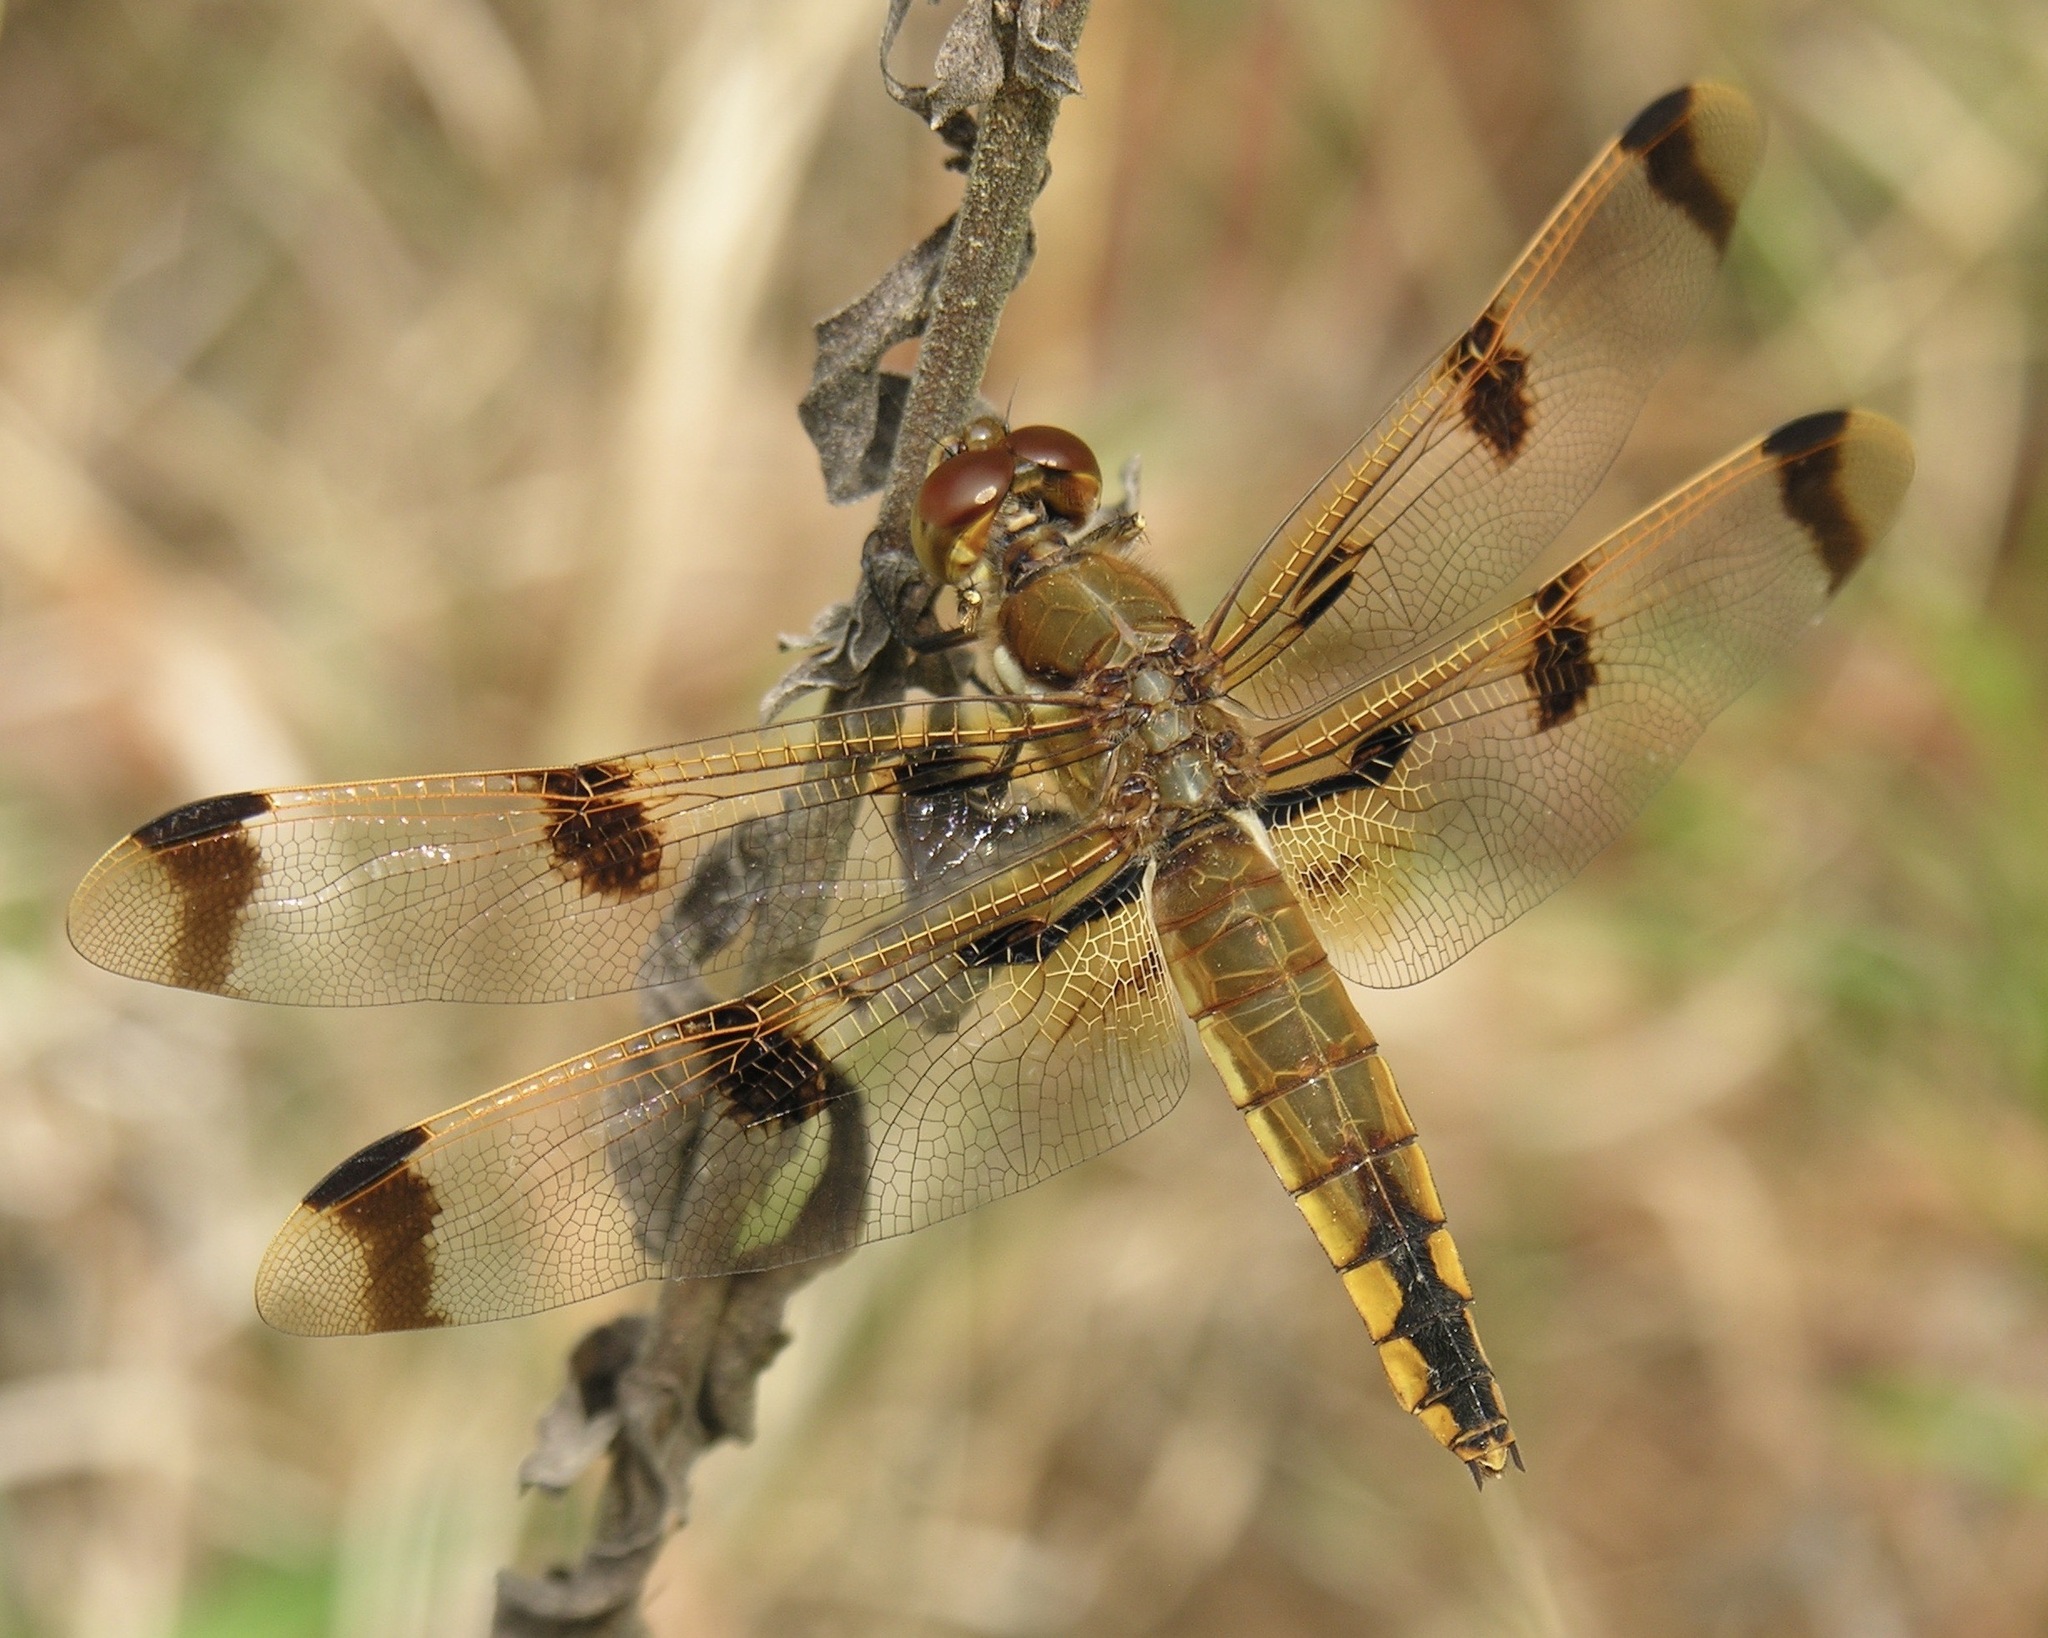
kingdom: Animalia
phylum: Arthropoda
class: Insecta
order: Odonata
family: Libellulidae
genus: Libellula
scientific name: Libellula semifasciata
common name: Painted skimmer
